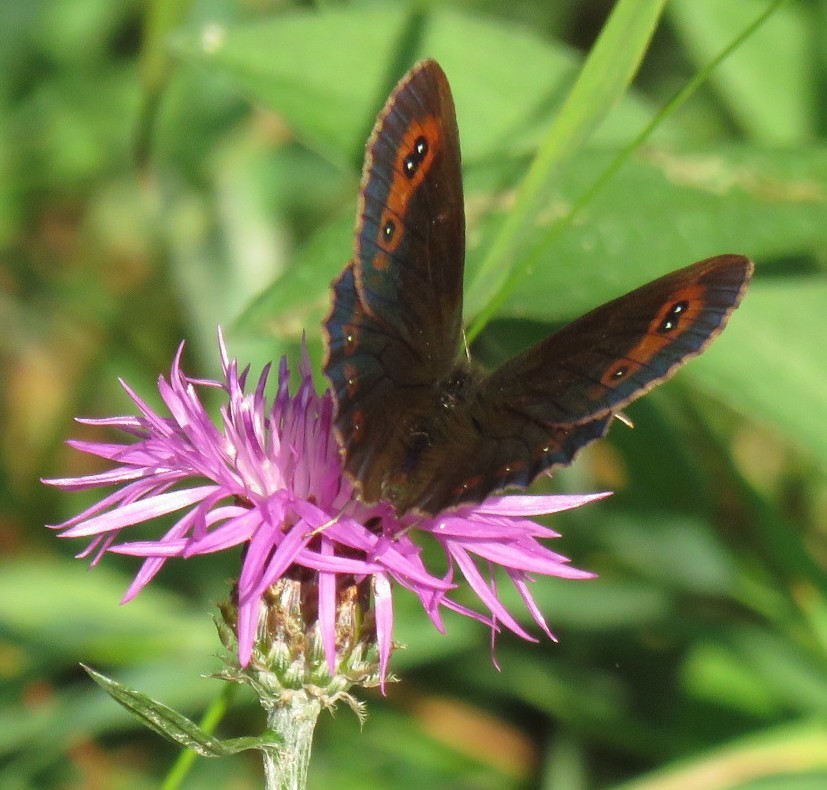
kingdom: Animalia
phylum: Arthropoda
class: Insecta
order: Lepidoptera
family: Nymphalidae
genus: Erebia
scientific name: Erebia aethiops
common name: Scotch argus
